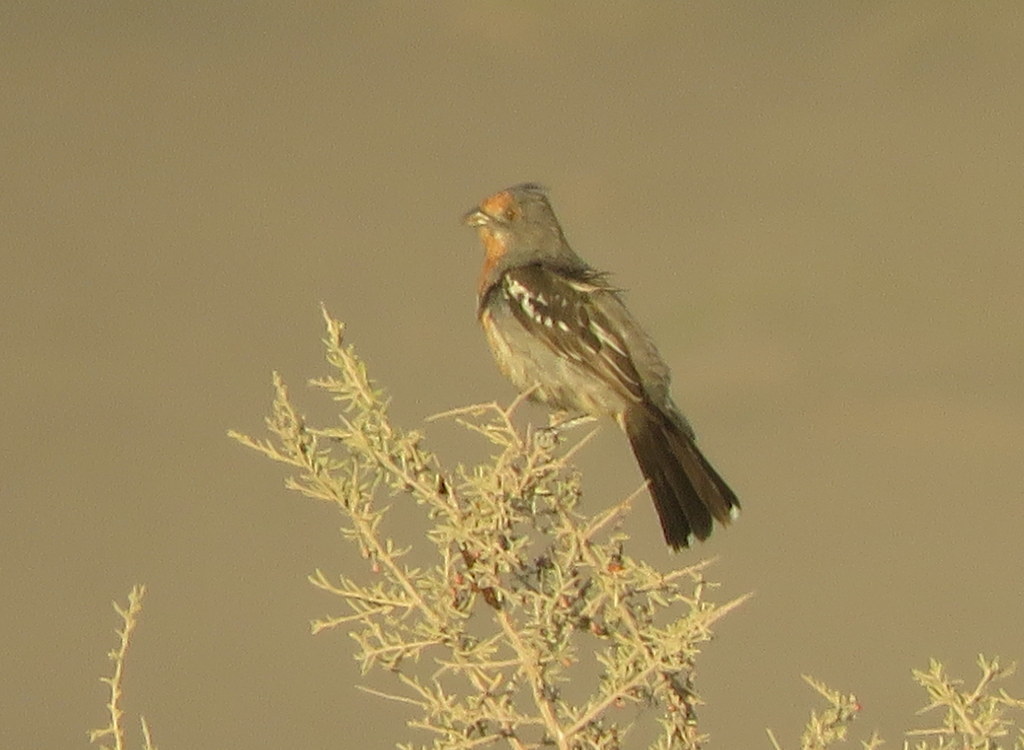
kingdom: Animalia
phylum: Chordata
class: Aves
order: Passeriformes
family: Cotingidae
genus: Phytotoma
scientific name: Phytotoma rutila
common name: White-tipped plantcutter
